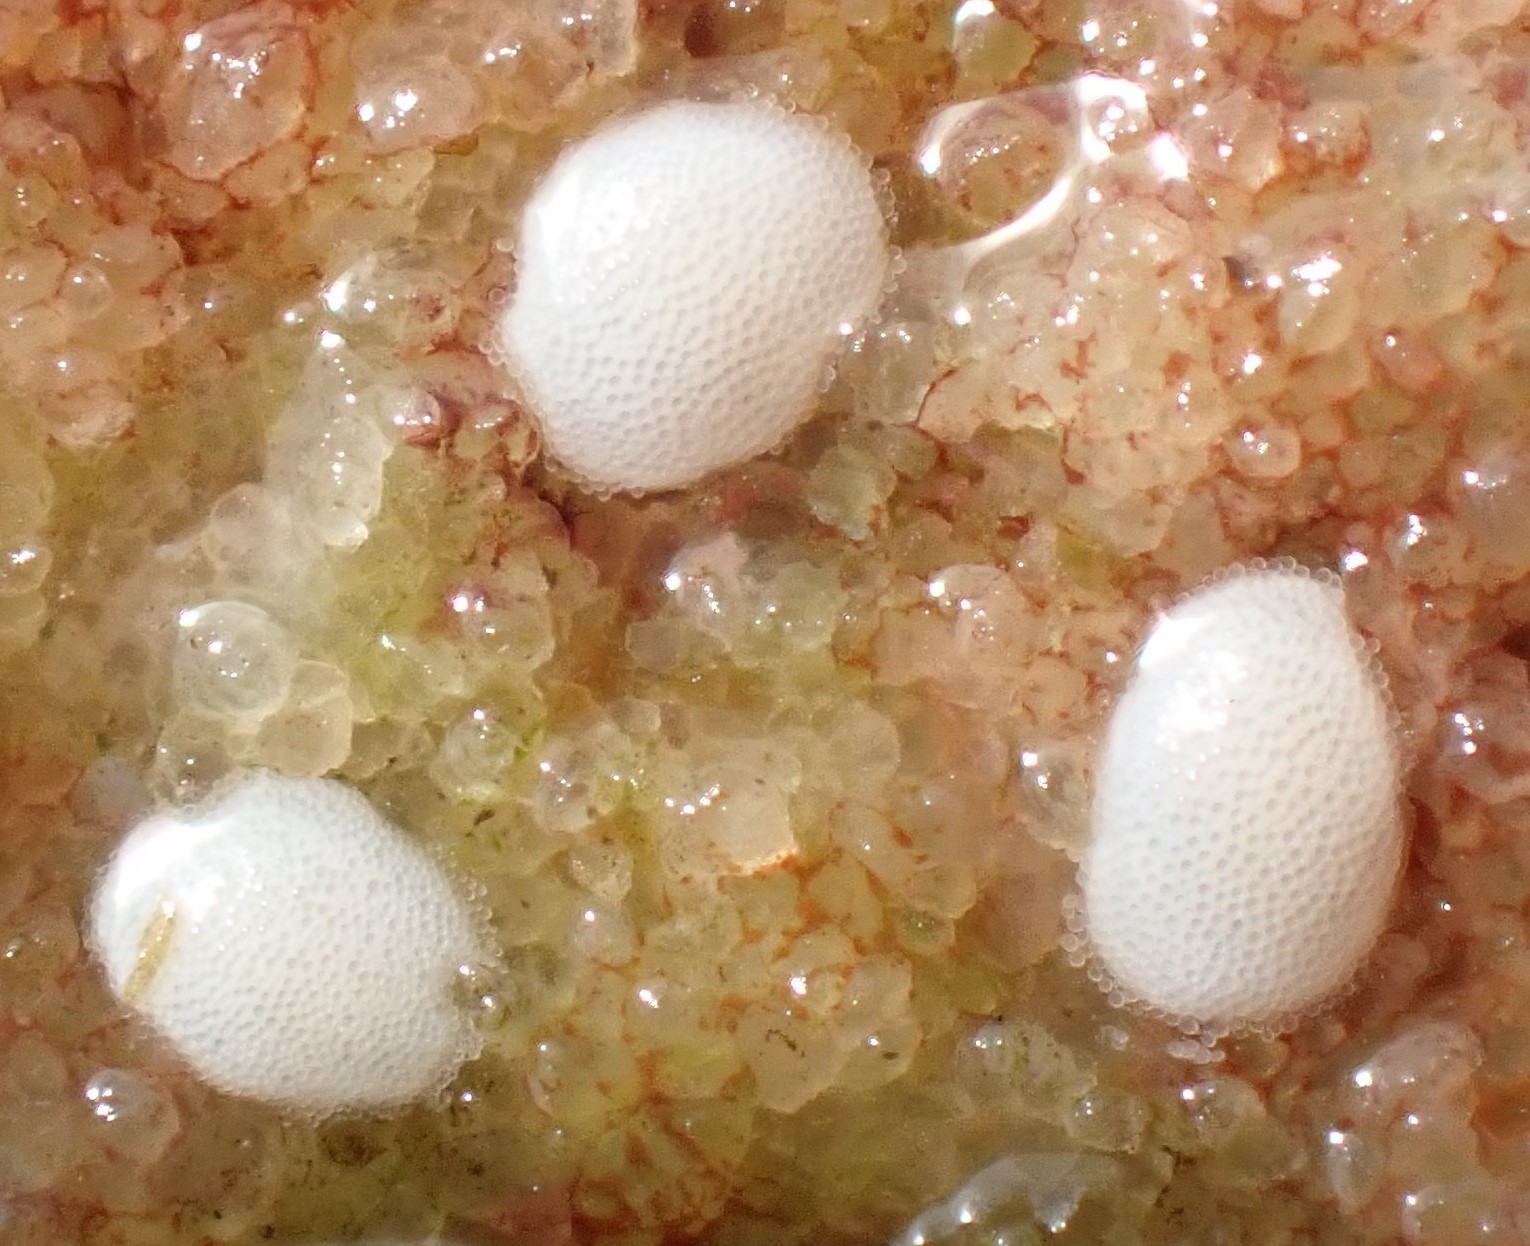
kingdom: Animalia
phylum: Mollusca
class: Gastropoda
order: Cycloneritida
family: Neritidae
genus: Nerita
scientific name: Nerita atramentosa
